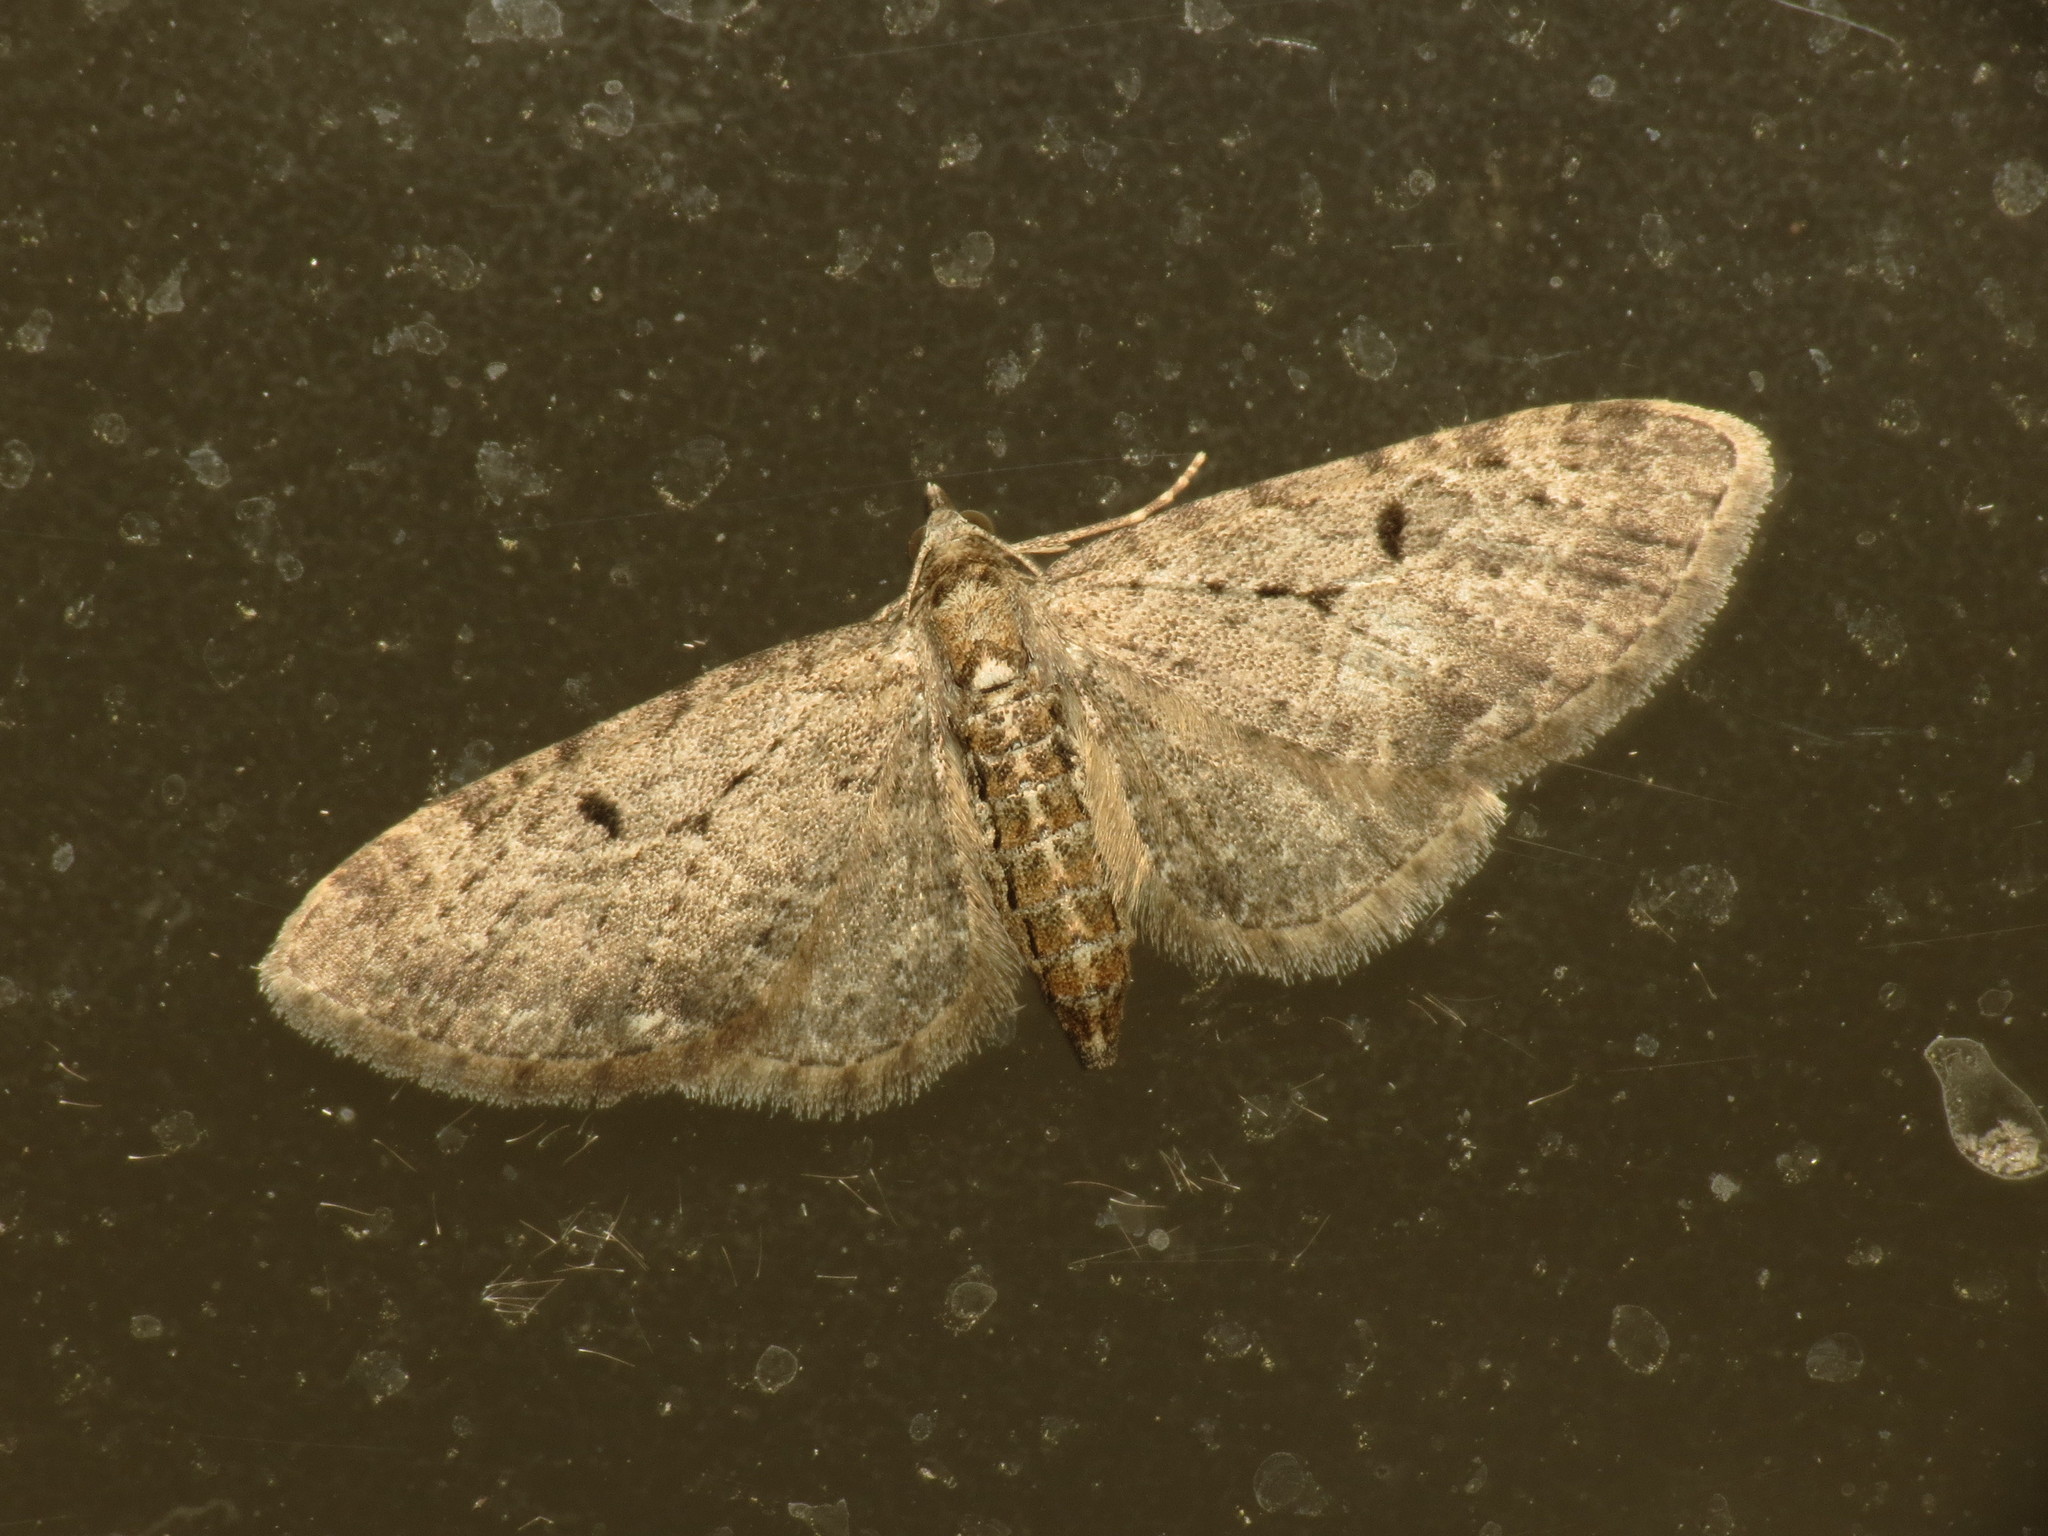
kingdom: Animalia
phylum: Arthropoda
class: Insecta
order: Lepidoptera
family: Geometridae
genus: Eupithecia
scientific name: Eupithecia virgaureata
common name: Golden-rod pug
